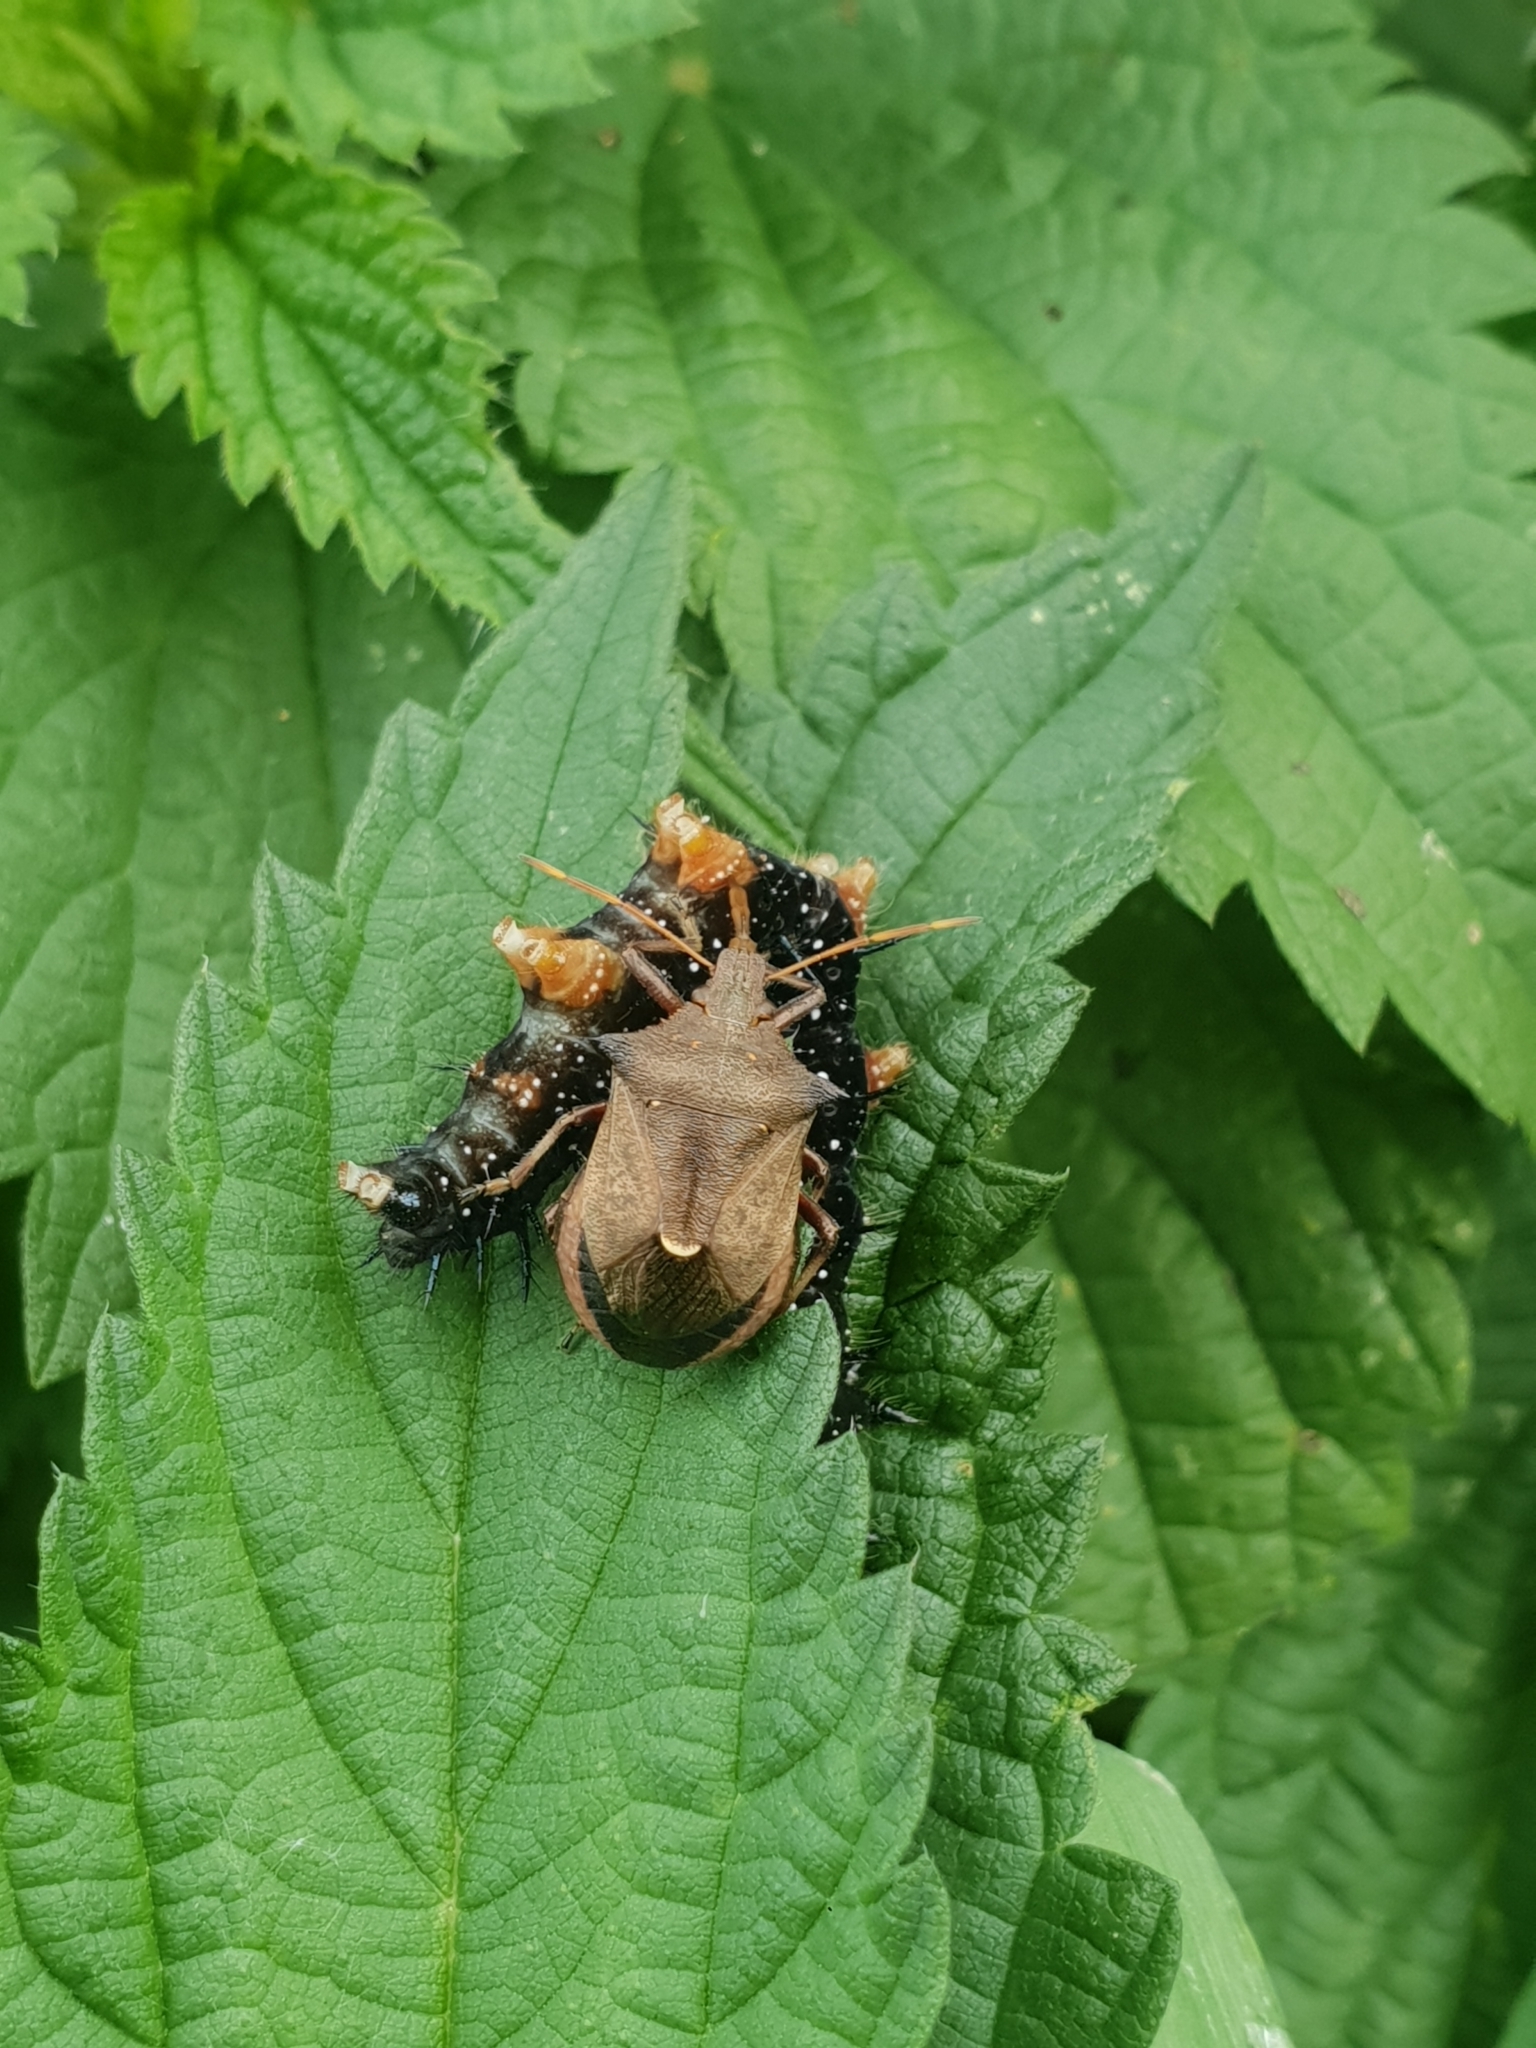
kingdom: Animalia
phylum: Arthropoda
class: Insecta
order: Hemiptera
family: Pentatomidae
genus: Picromerus
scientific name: Picromerus bidens
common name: Spiked shieldbug
